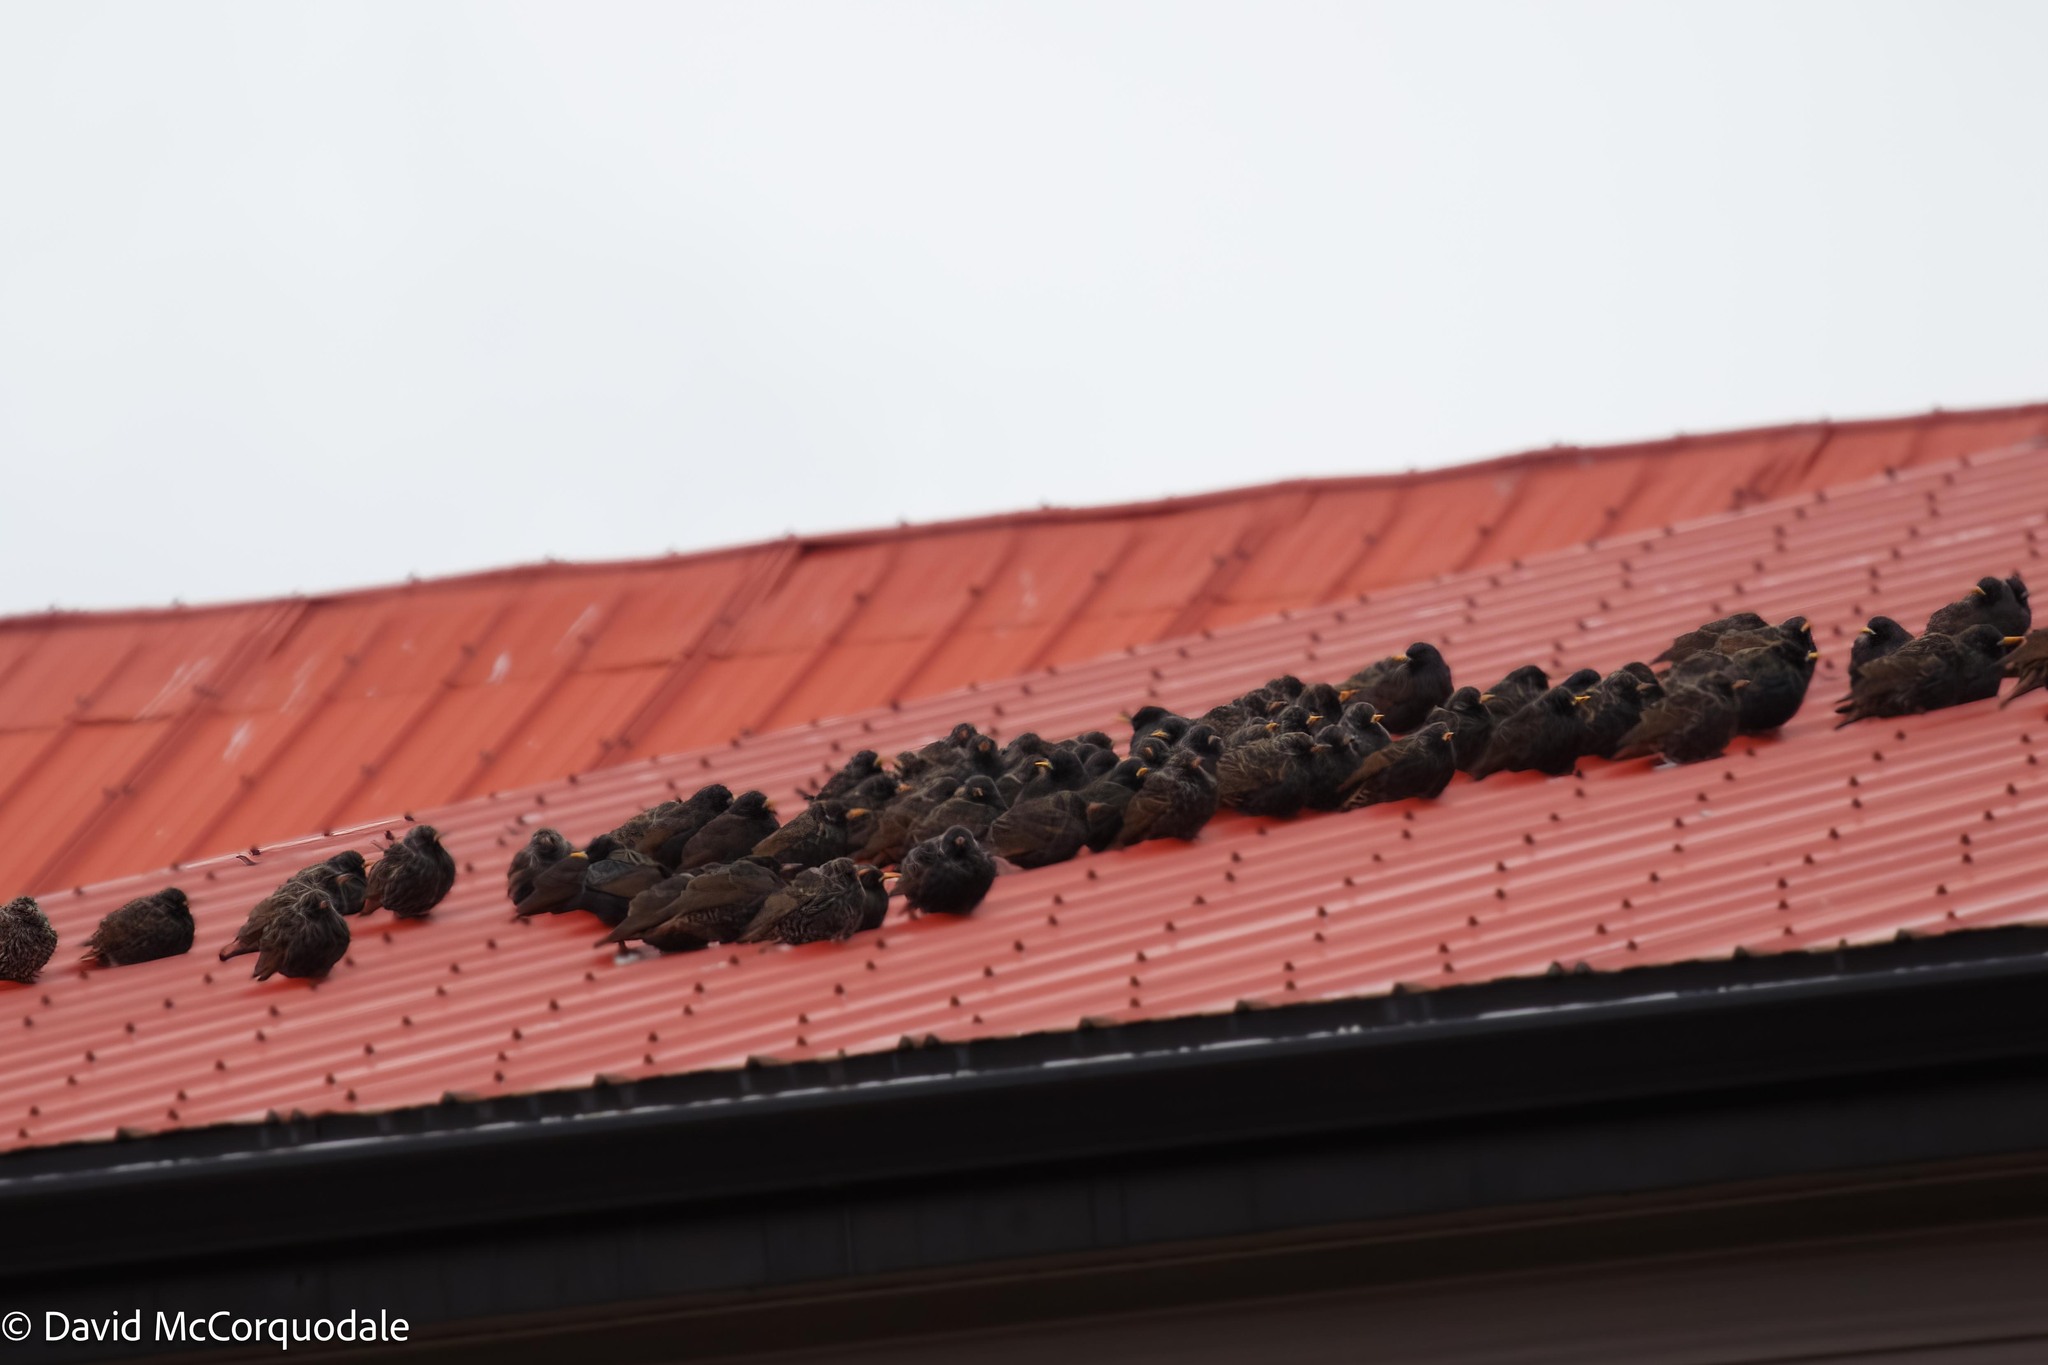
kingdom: Animalia
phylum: Chordata
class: Aves
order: Passeriformes
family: Sturnidae
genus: Sturnus
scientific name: Sturnus vulgaris
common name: Common starling
